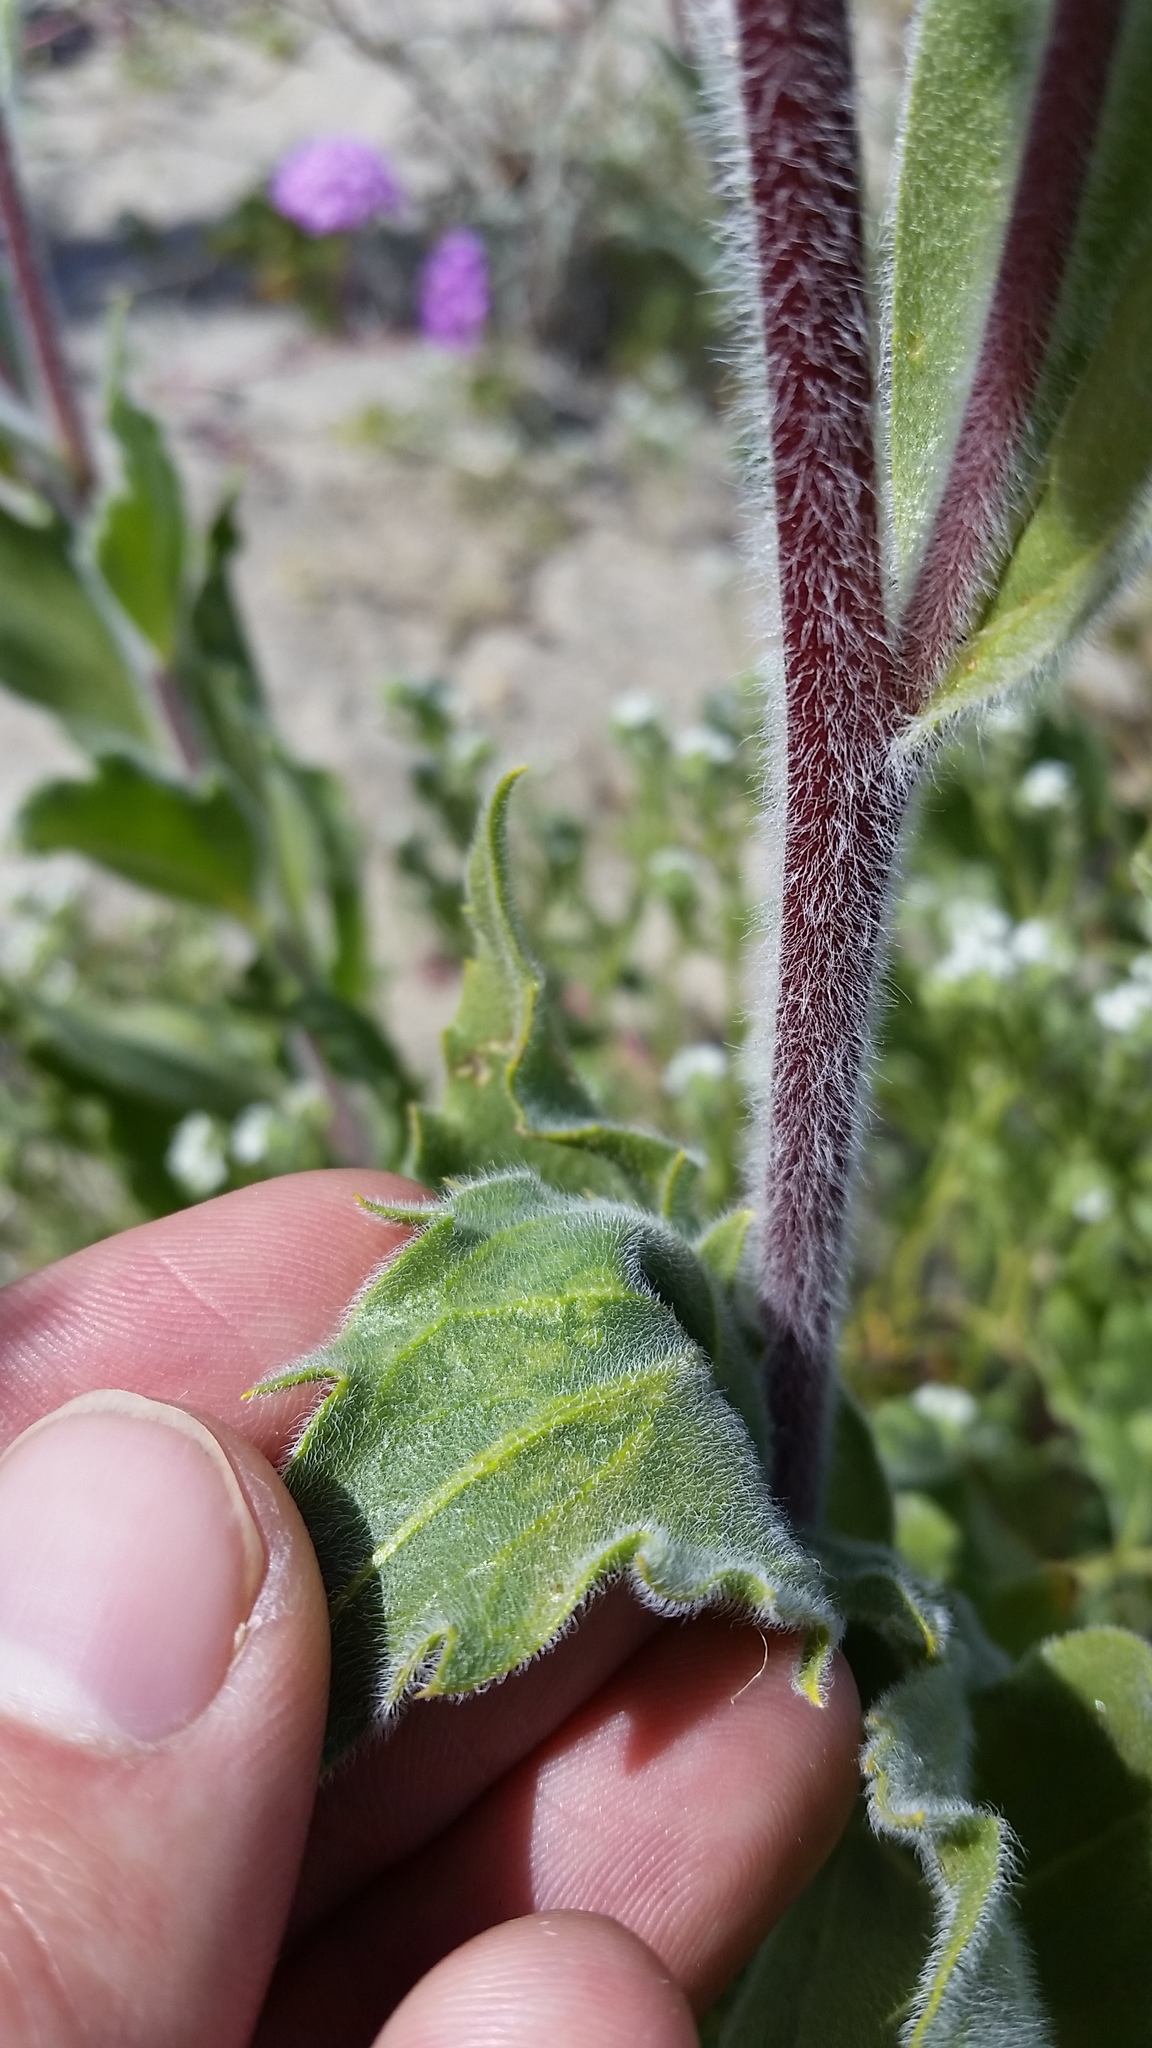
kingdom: Plantae
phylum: Tracheophyta
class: Magnoliopsida
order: Asterales
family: Asteraceae
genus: Geraea
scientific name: Geraea canescens
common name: Desert-gold
